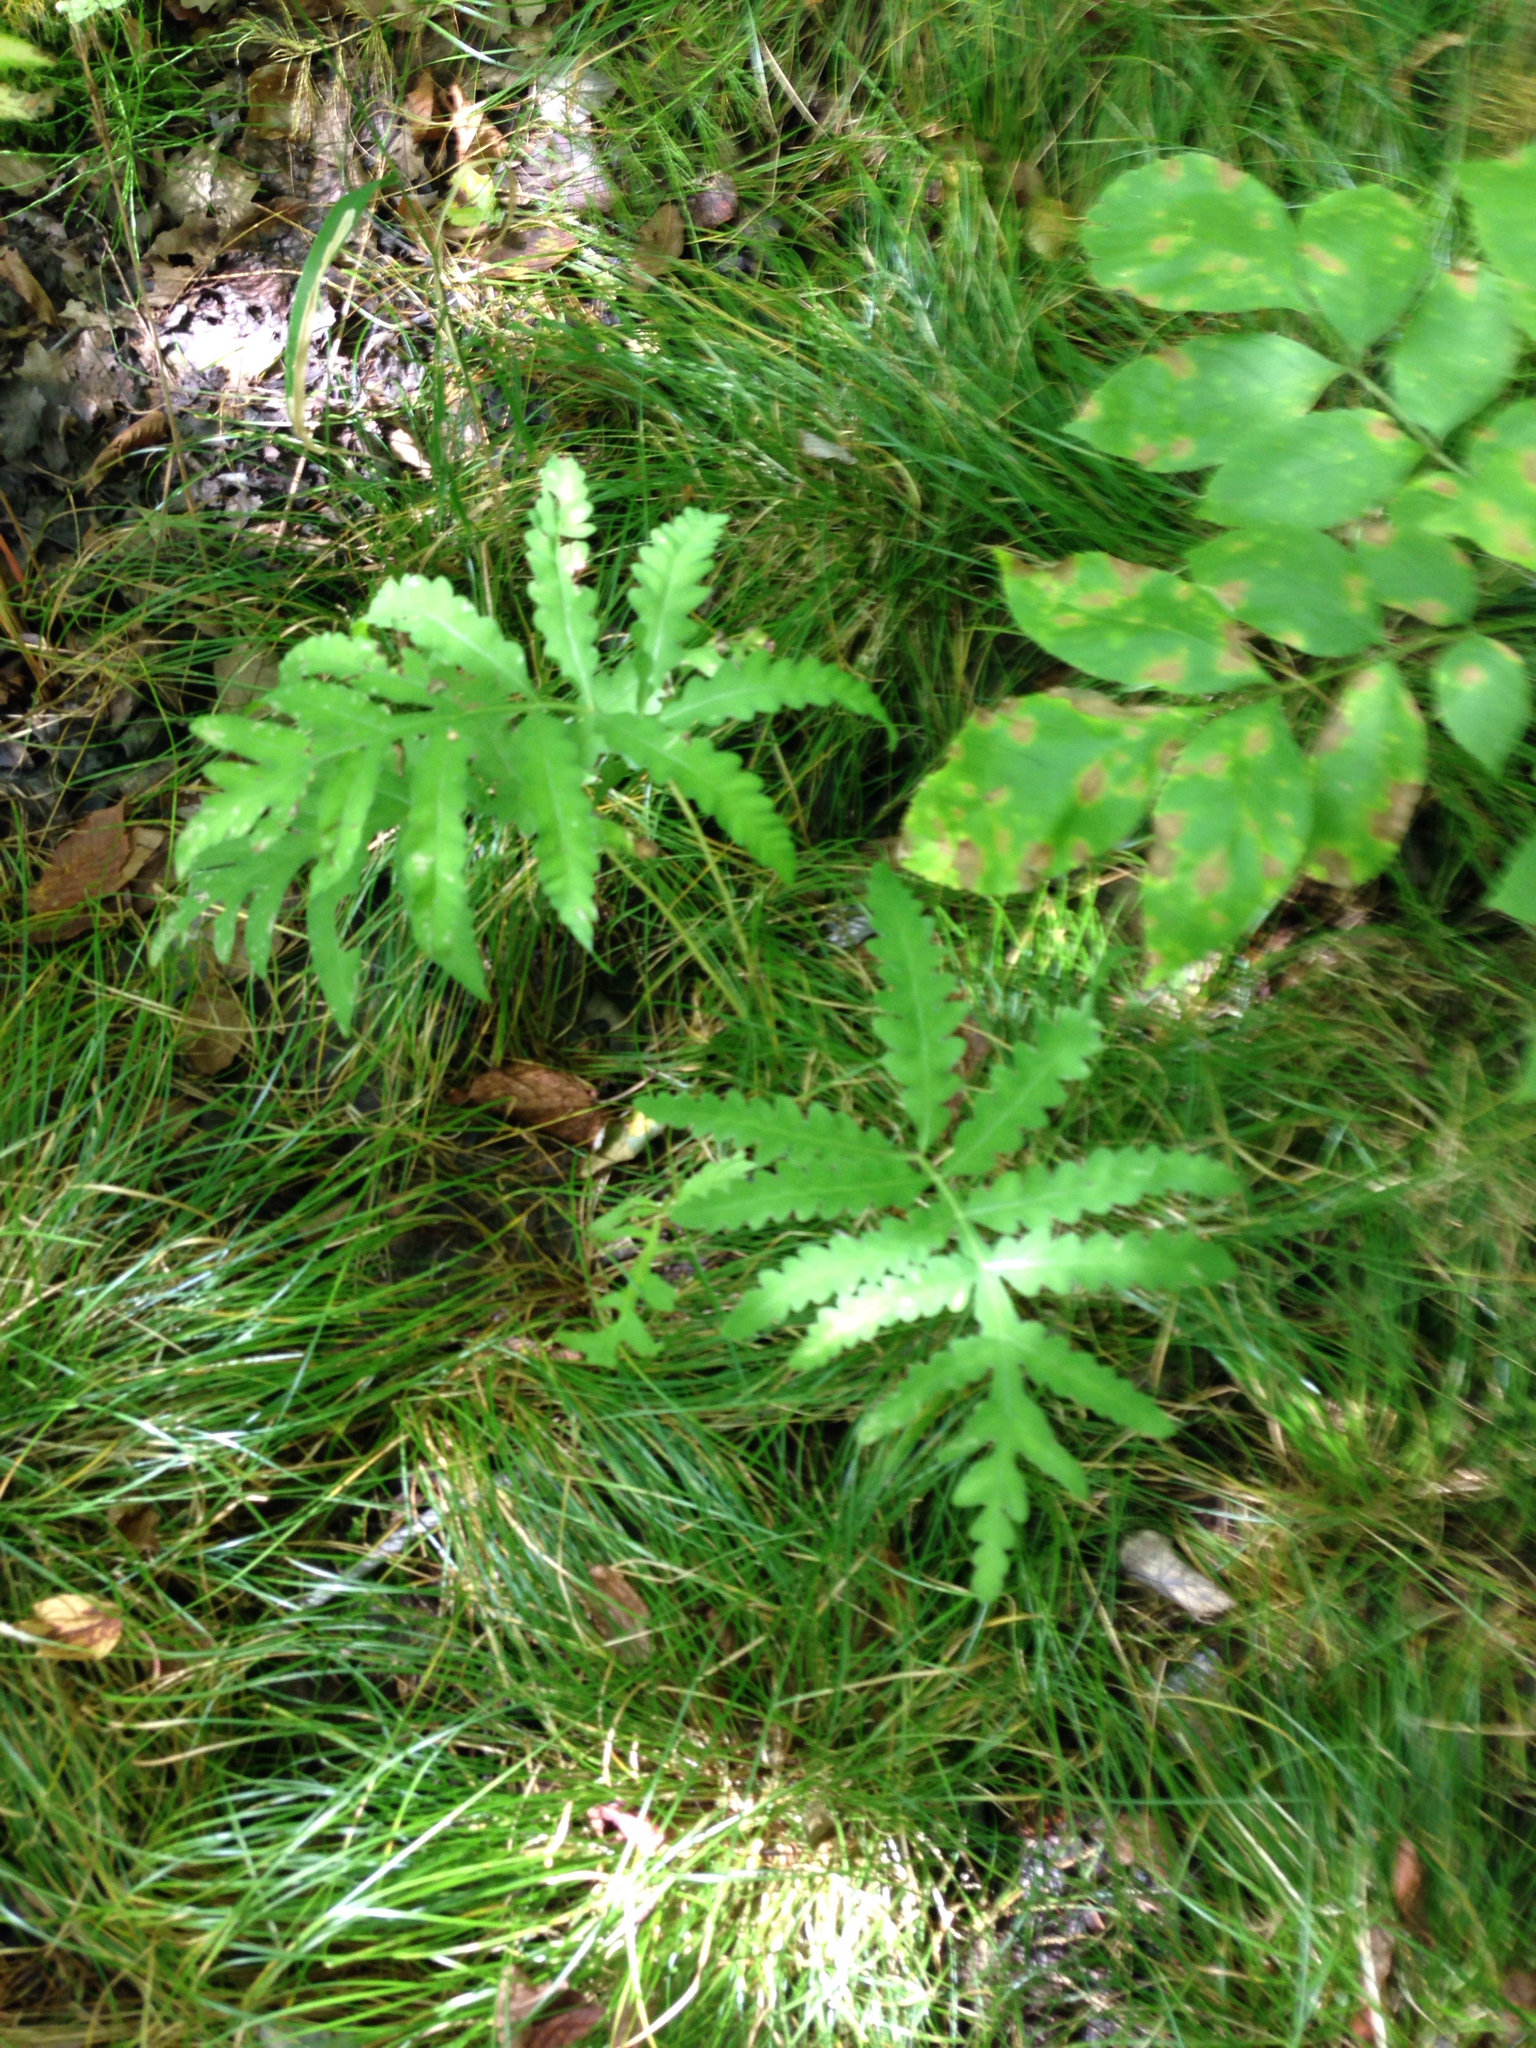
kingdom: Plantae
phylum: Tracheophyta
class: Polypodiopsida
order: Polypodiales
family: Onocleaceae
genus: Onoclea
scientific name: Onoclea sensibilis
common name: Sensitive fern
